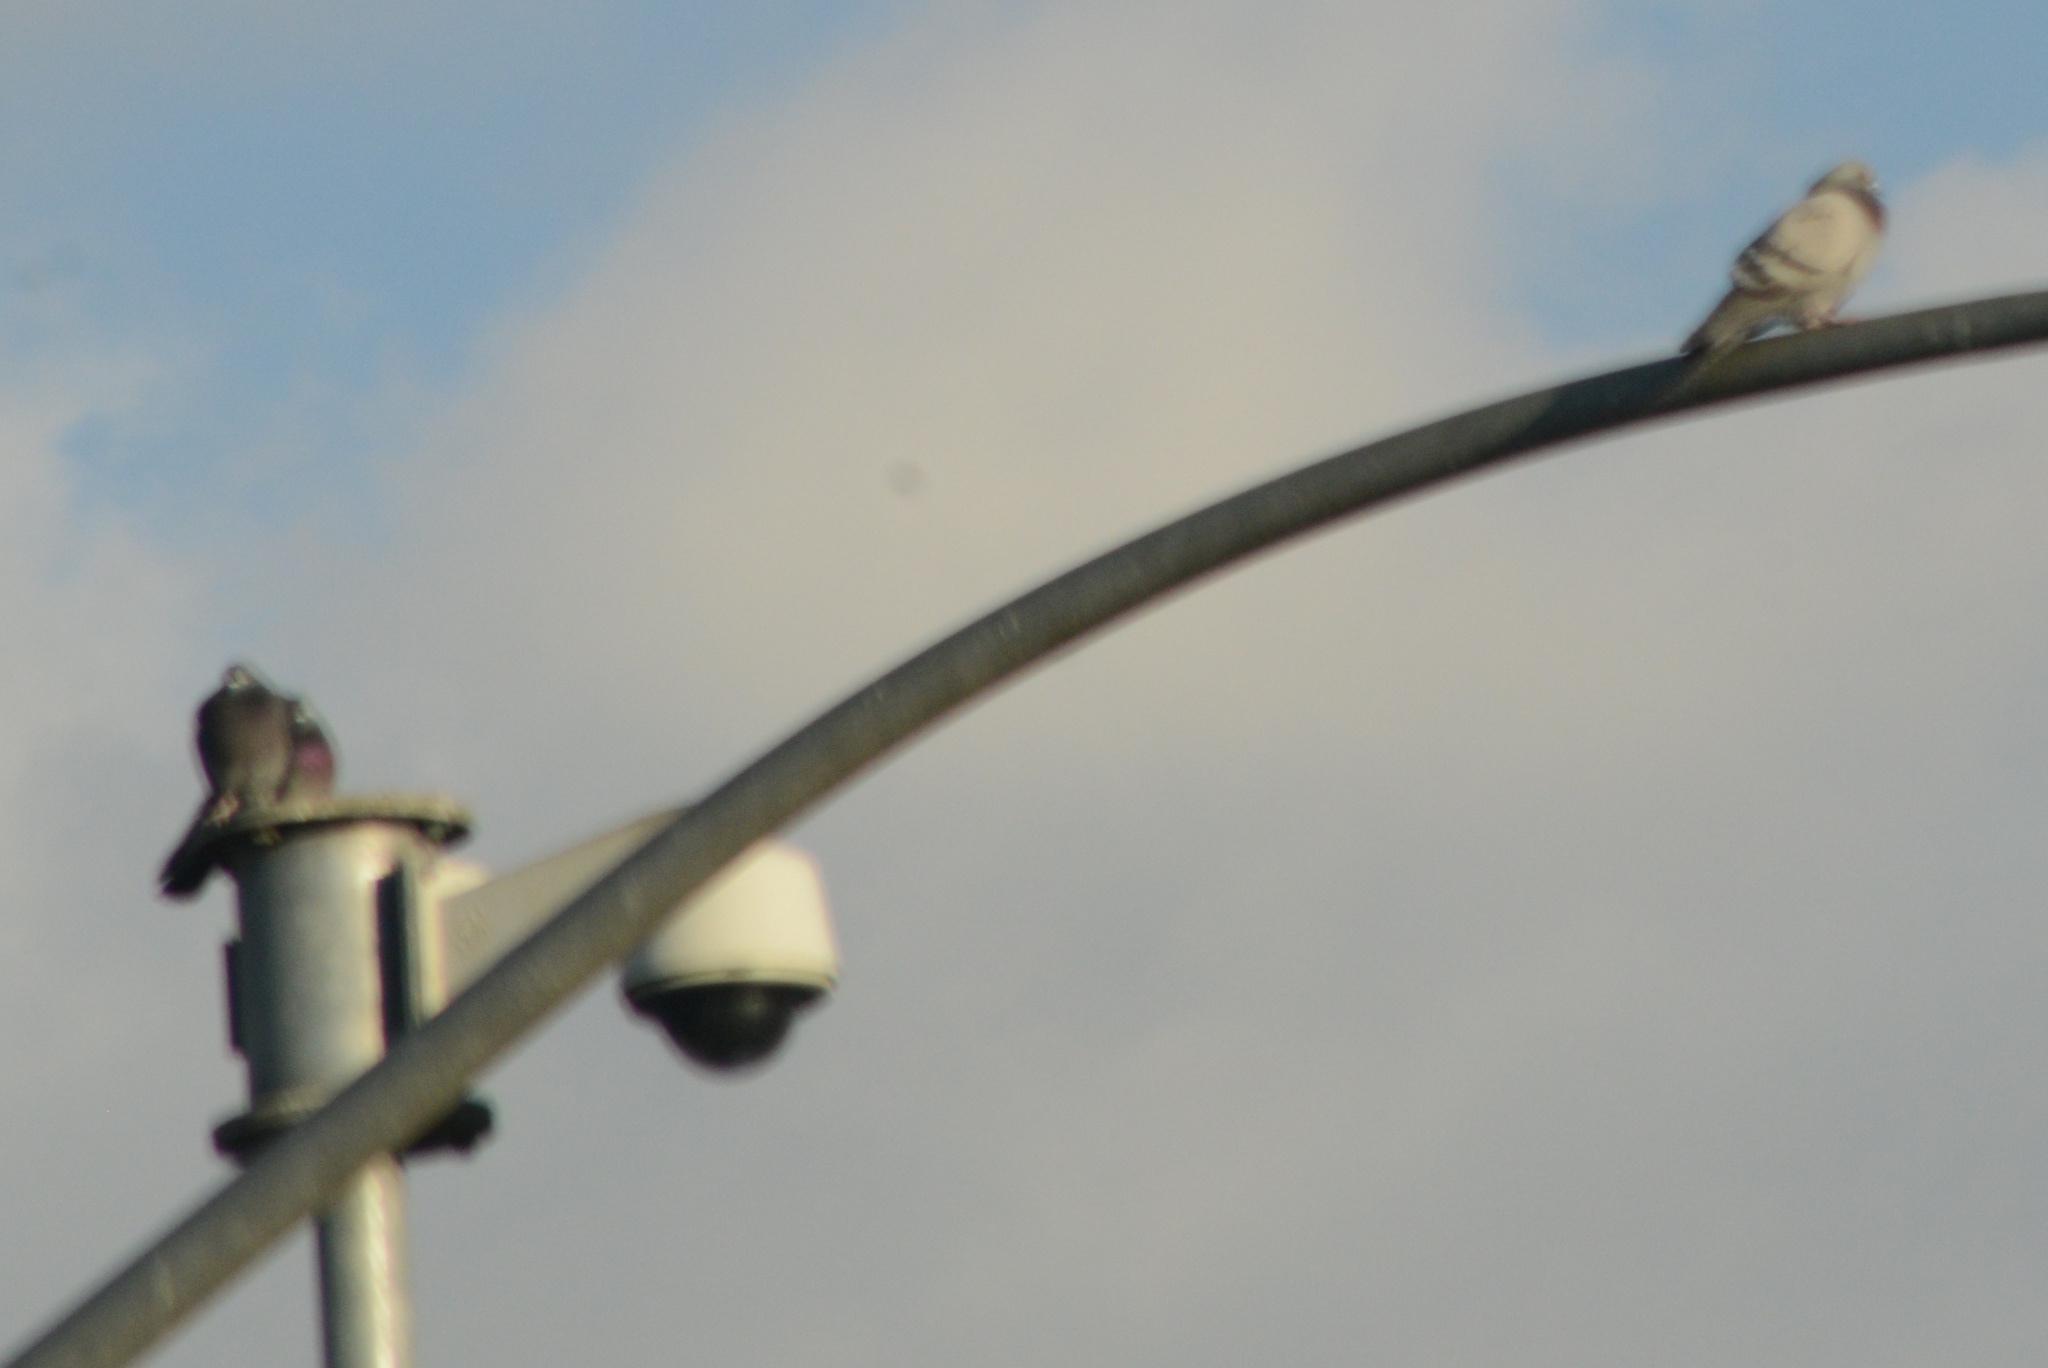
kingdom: Animalia
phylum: Chordata
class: Aves
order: Columbiformes
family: Columbidae
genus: Columba
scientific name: Columba livia
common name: Rock pigeon
